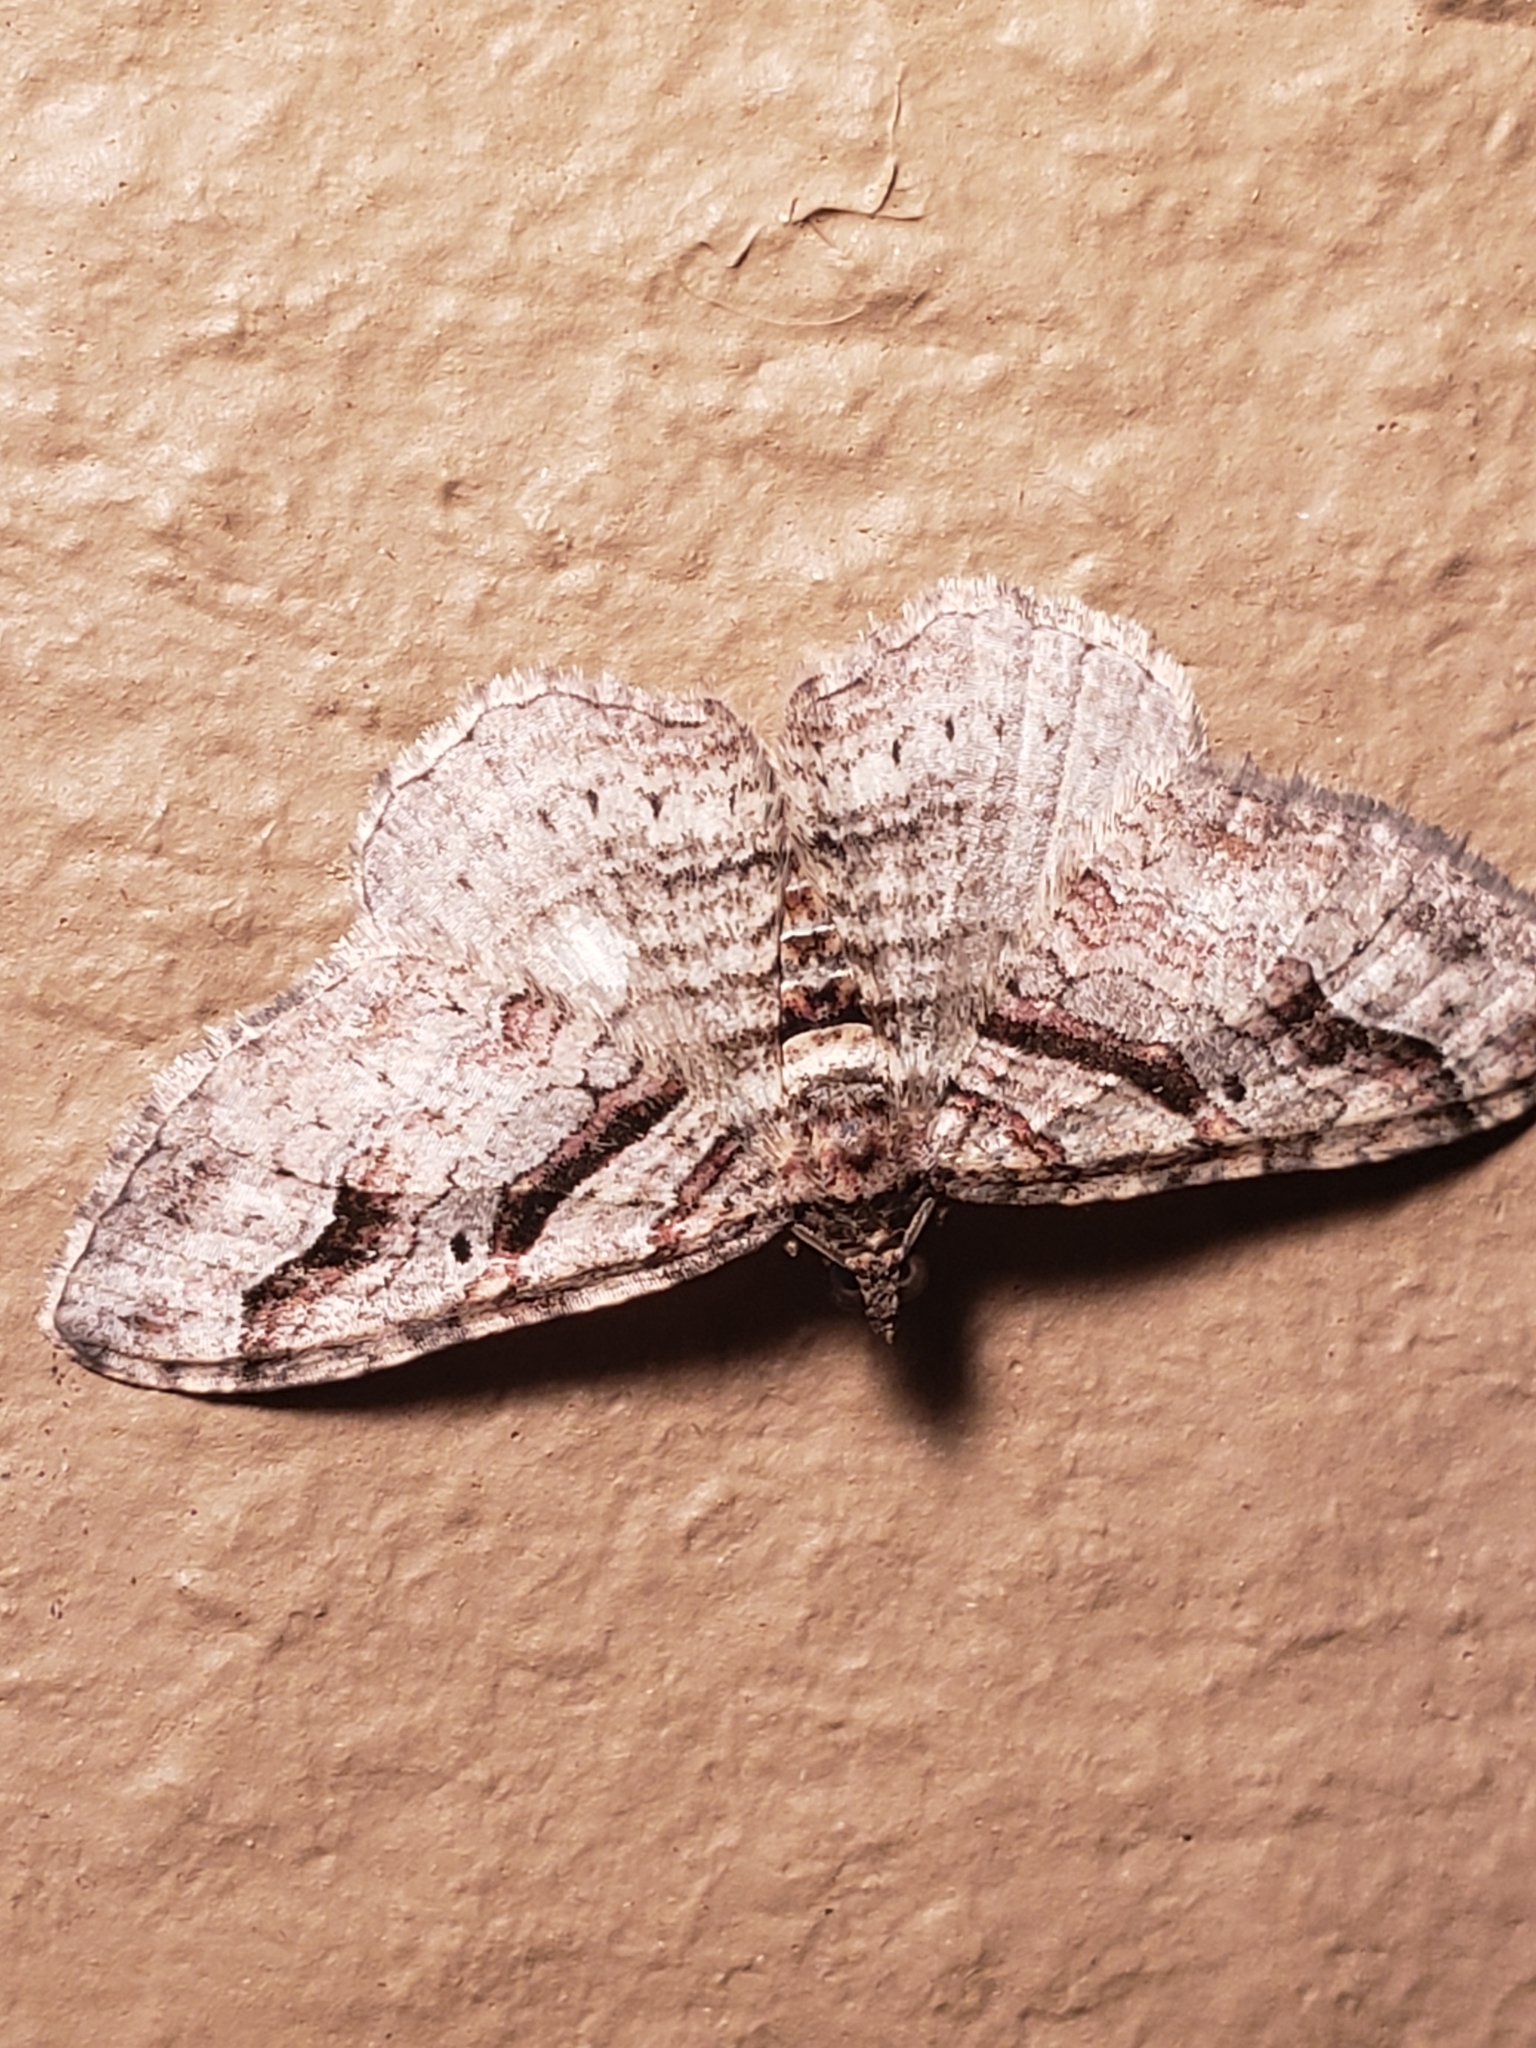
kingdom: Animalia
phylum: Arthropoda
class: Insecta
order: Lepidoptera
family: Geometridae
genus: Costaconvexa
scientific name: Costaconvexa centrostrigaria
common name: Bent-line carpet
